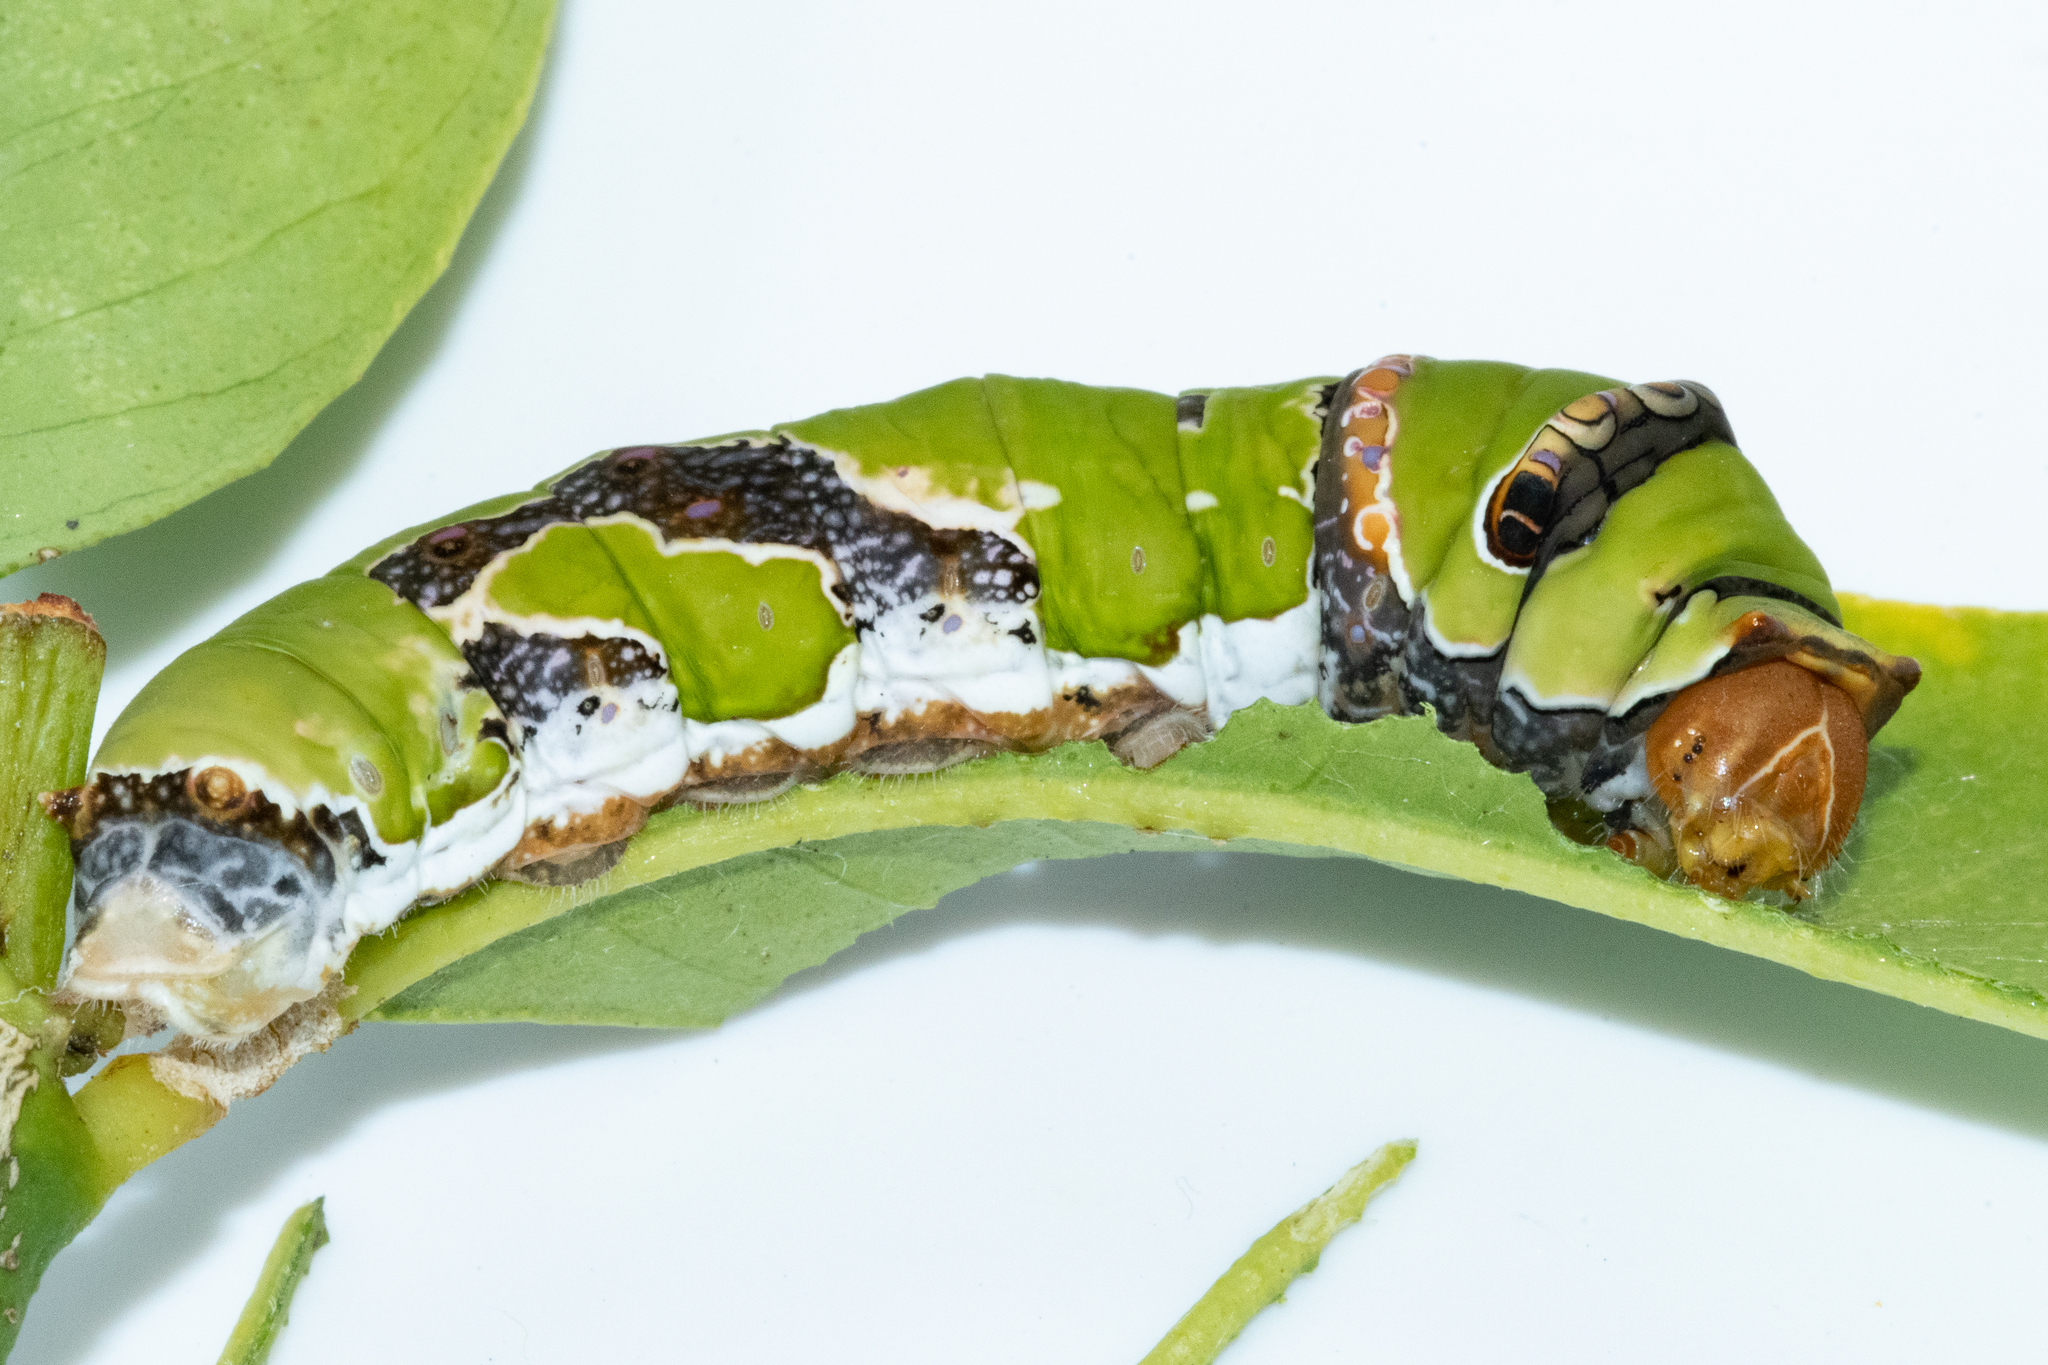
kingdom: Animalia
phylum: Arthropoda
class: Insecta
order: Lepidoptera
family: Papilionidae
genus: Papilio
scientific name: Papilio demodocus
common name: Christmas butterfly
